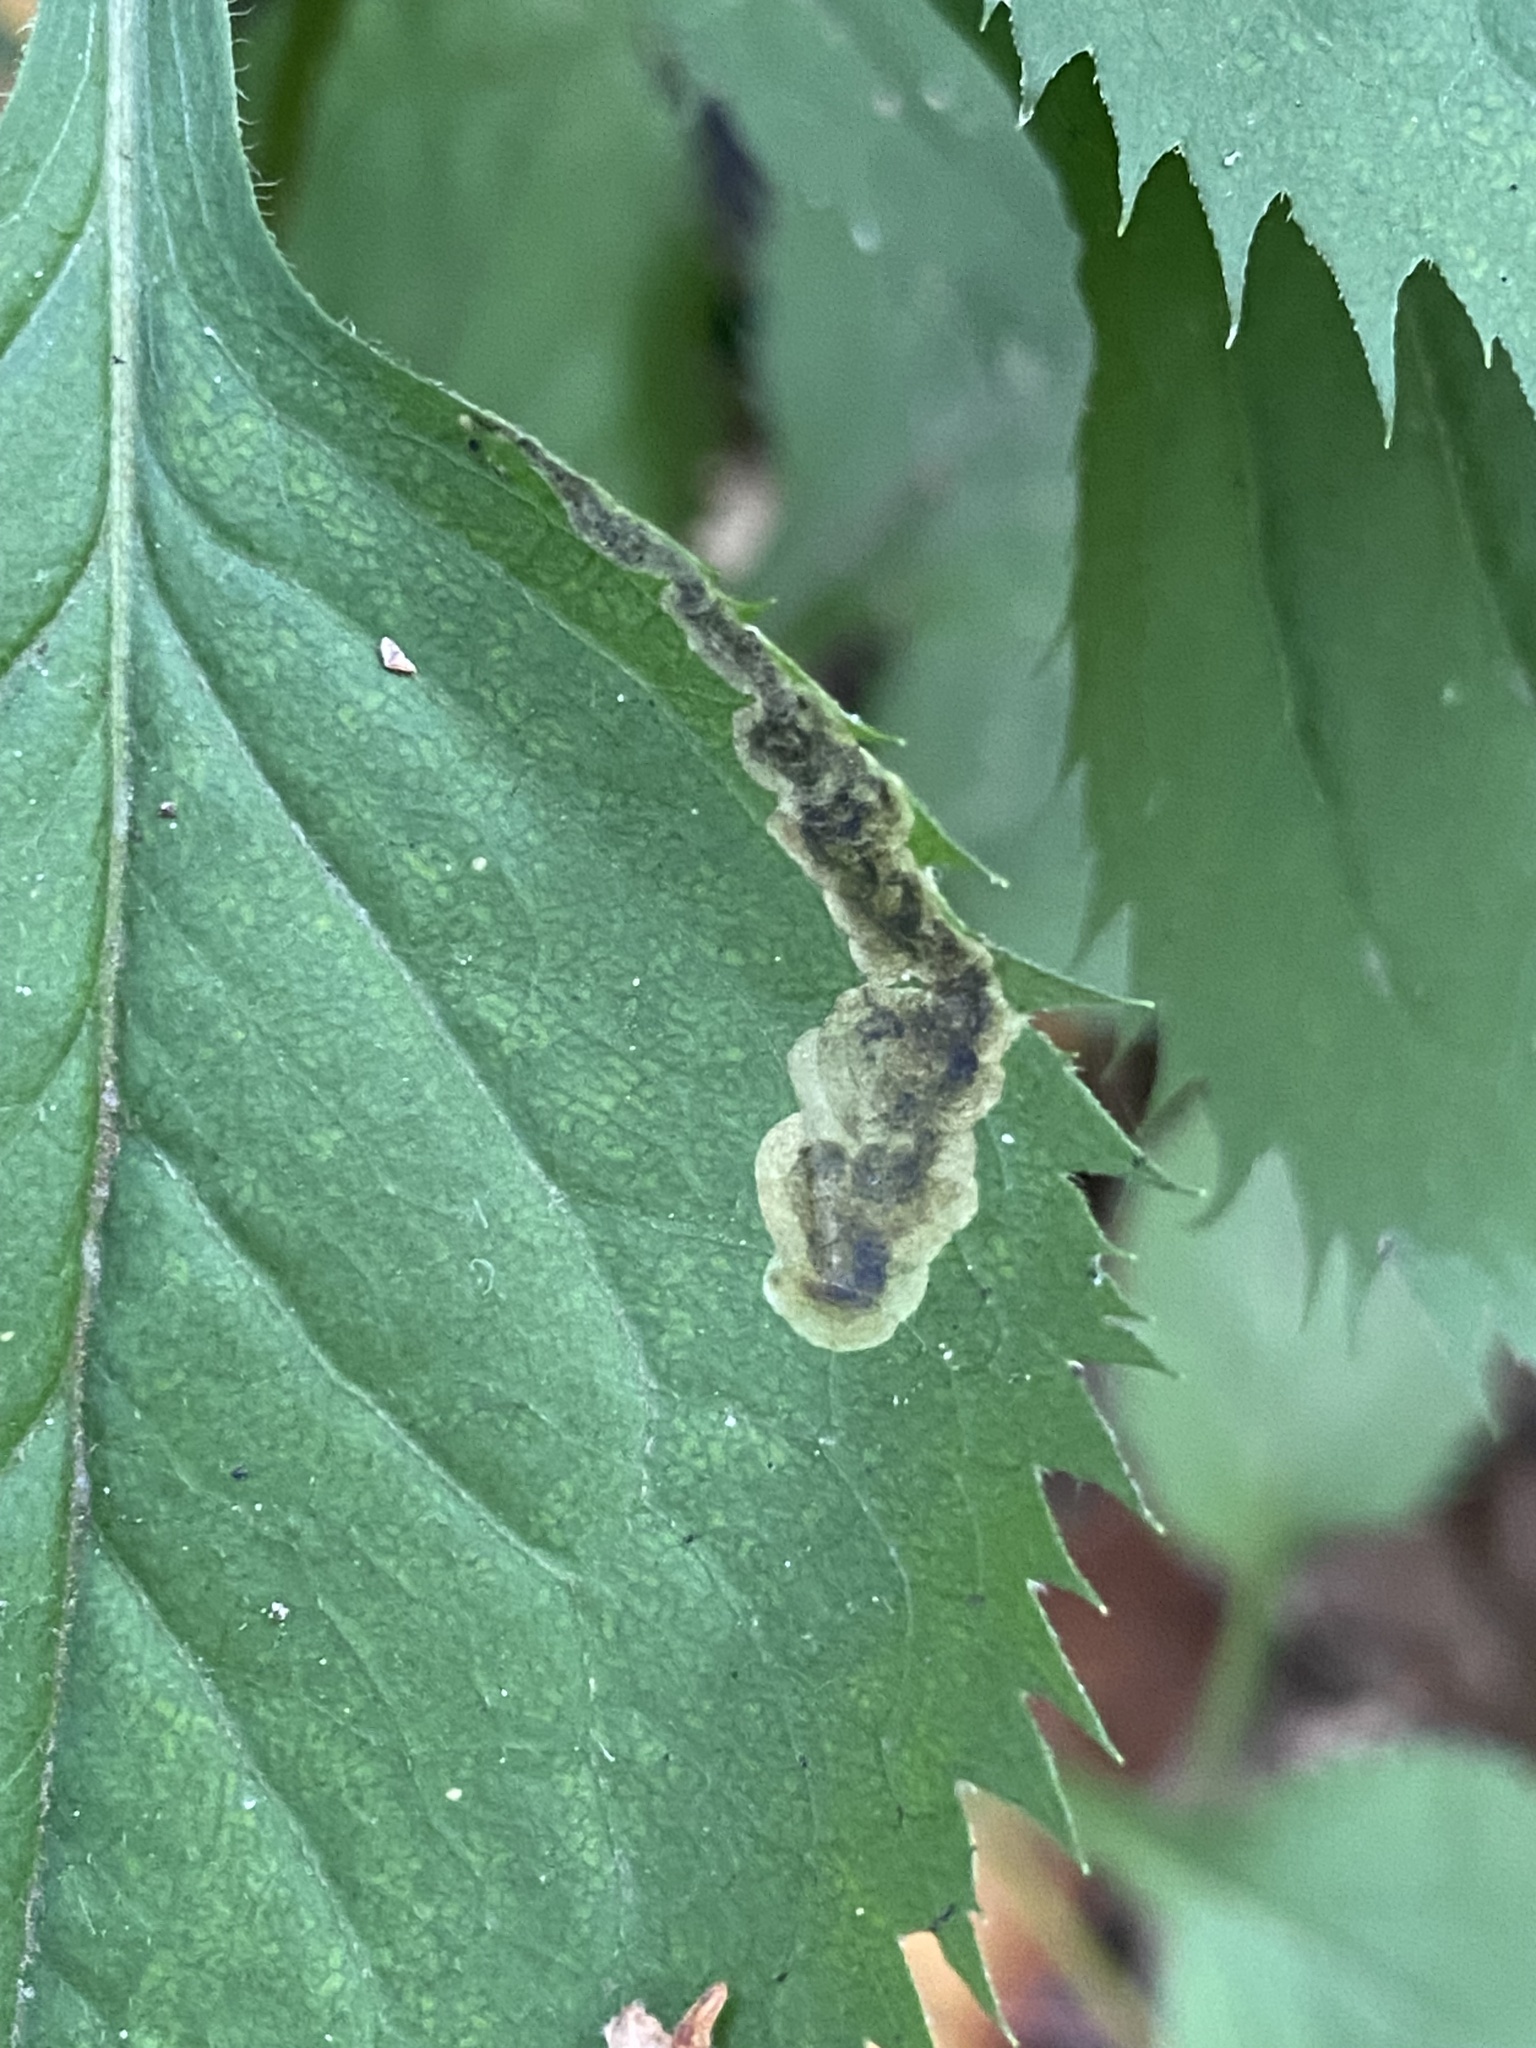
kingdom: Animalia
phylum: Arthropoda
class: Insecta
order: Diptera
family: Agromyzidae
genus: Nemorimyza
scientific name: Nemorimyza posticata
